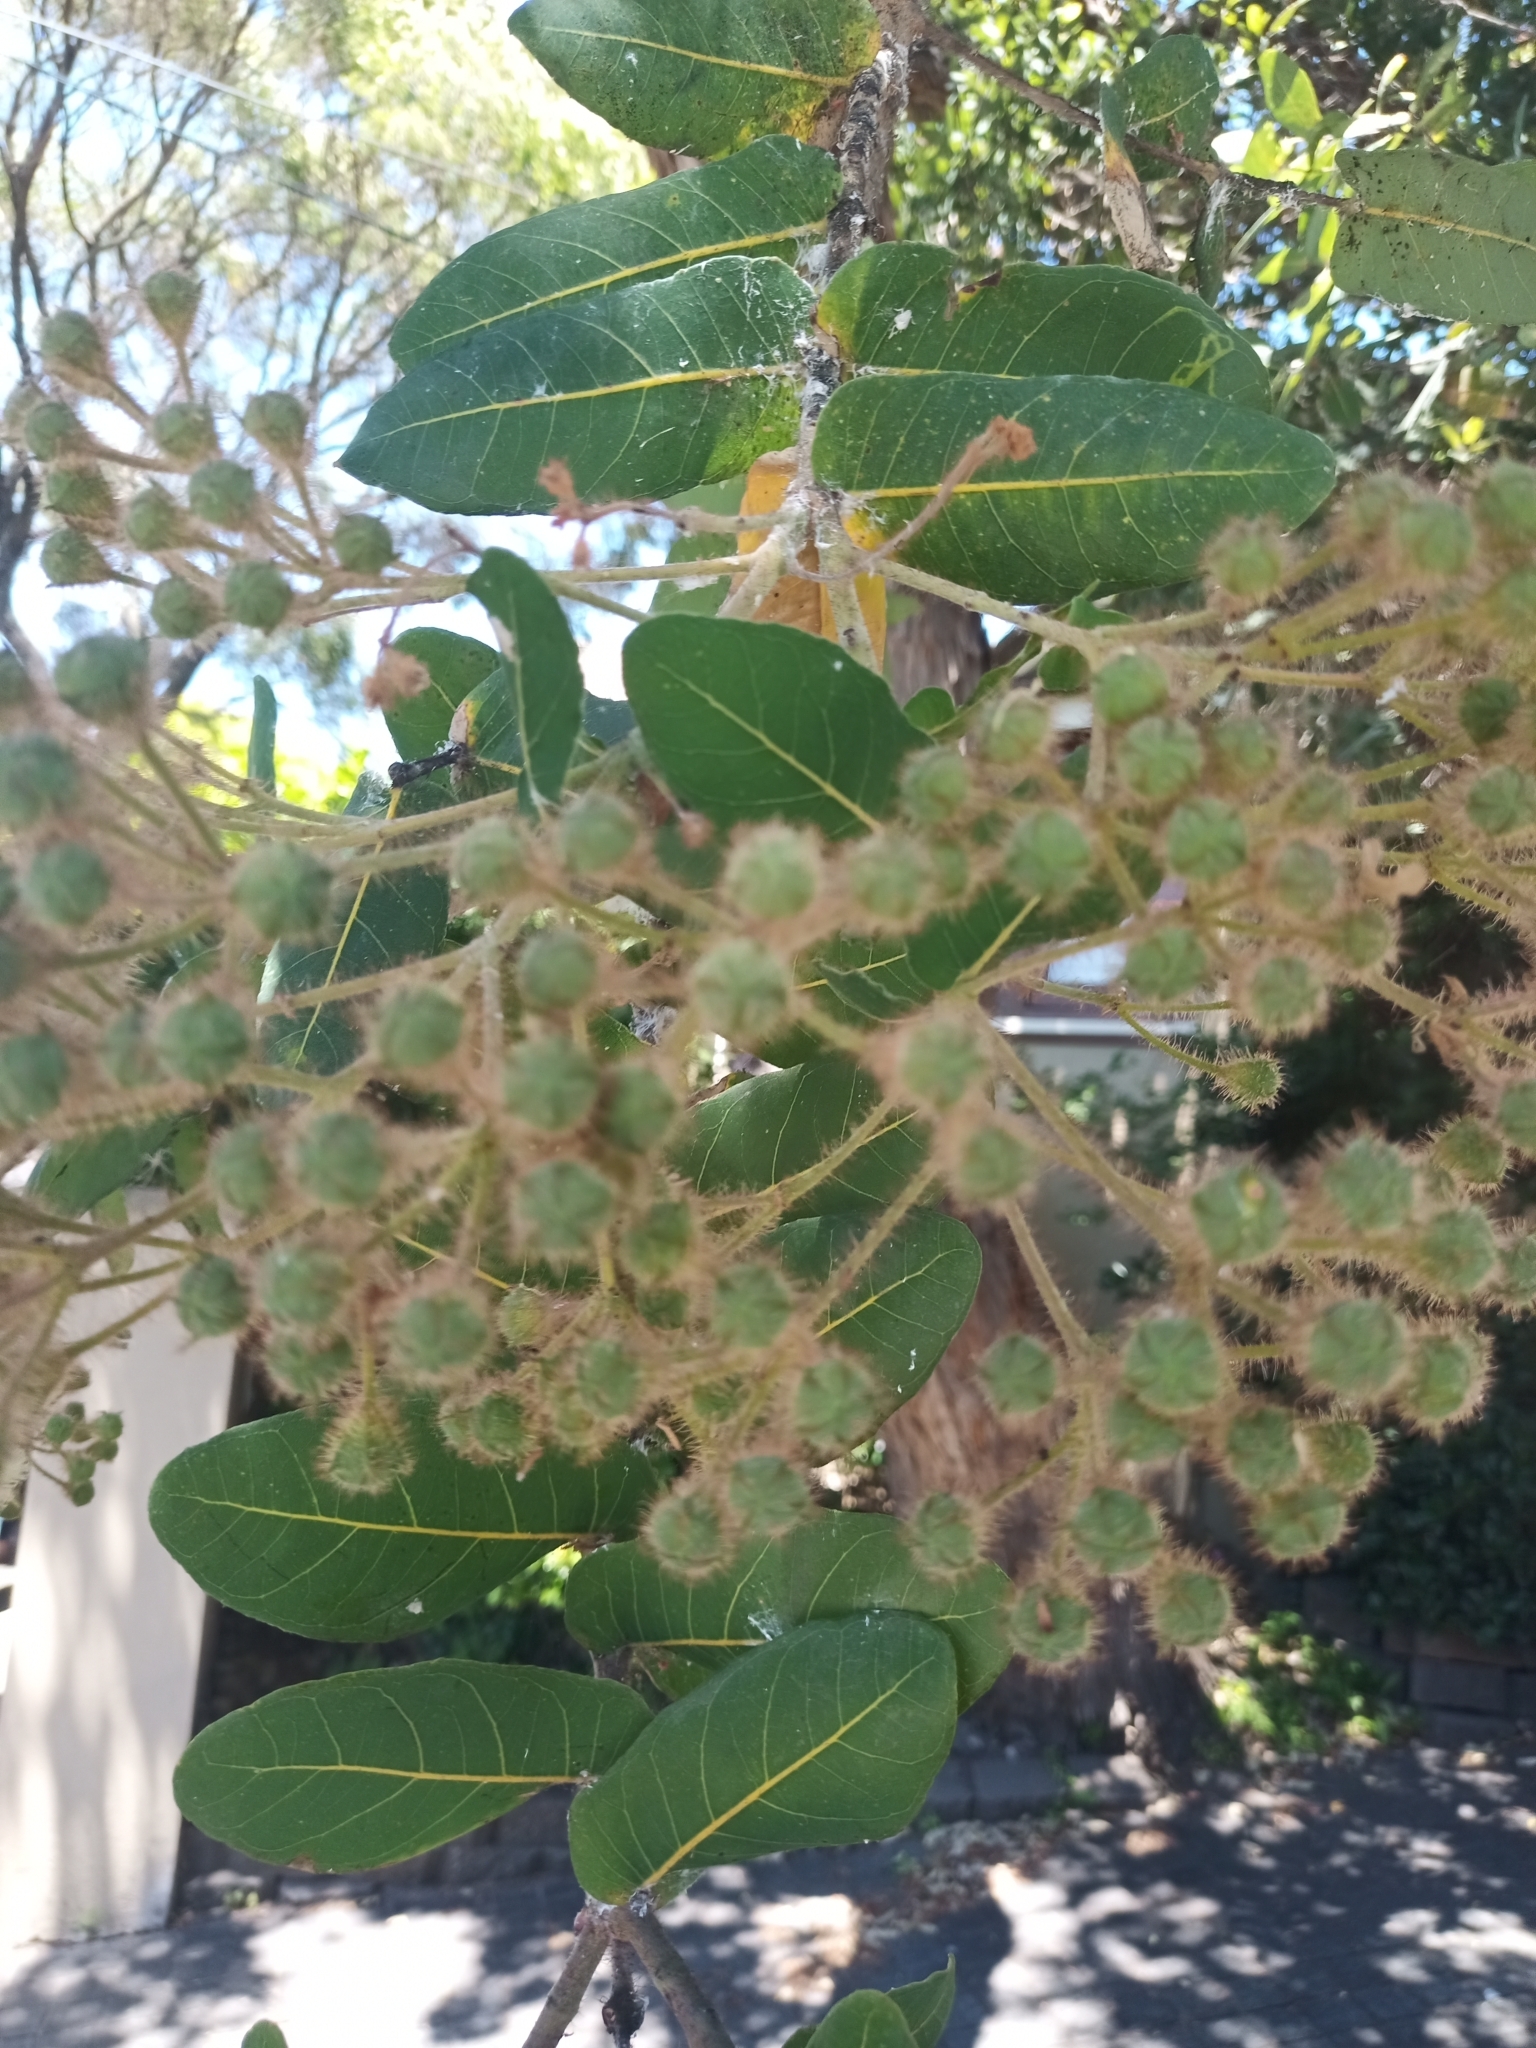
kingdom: Plantae
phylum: Tracheophyta
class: Magnoliopsida
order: Myrtales
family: Myrtaceae
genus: Angophora
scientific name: Angophora hispida
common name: Dwarf-apple
